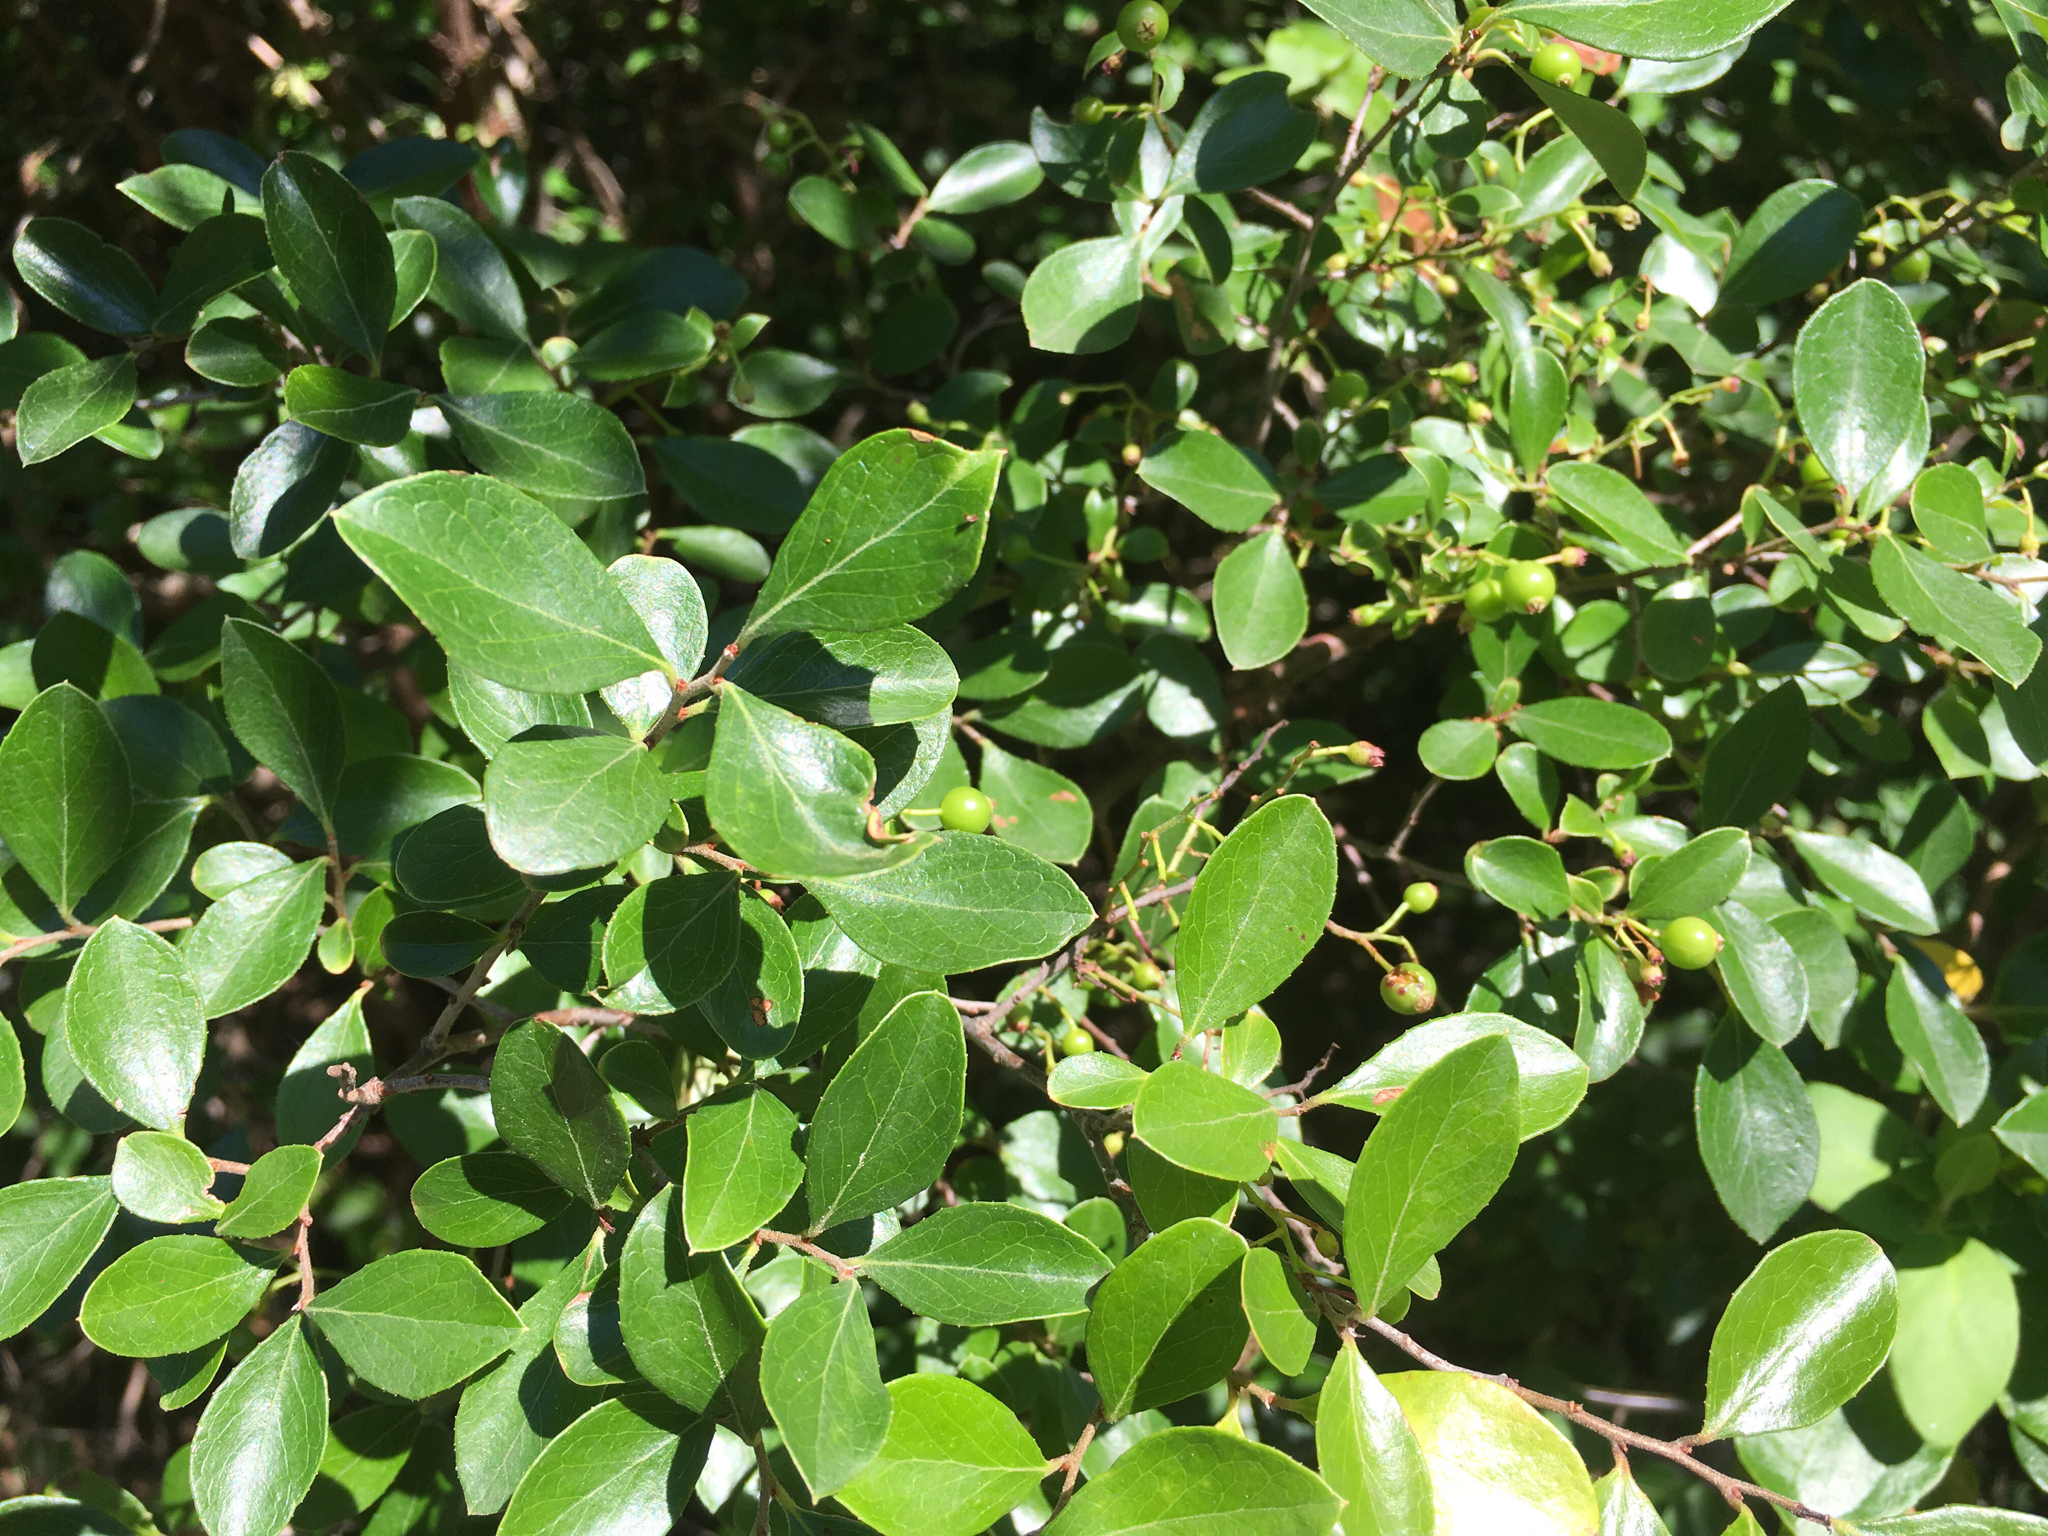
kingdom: Plantae
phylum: Tracheophyta
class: Magnoliopsida
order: Ericales
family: Ericaceae
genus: Vaccinium
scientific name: Vaccinium arboreum
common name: Farkleberry
